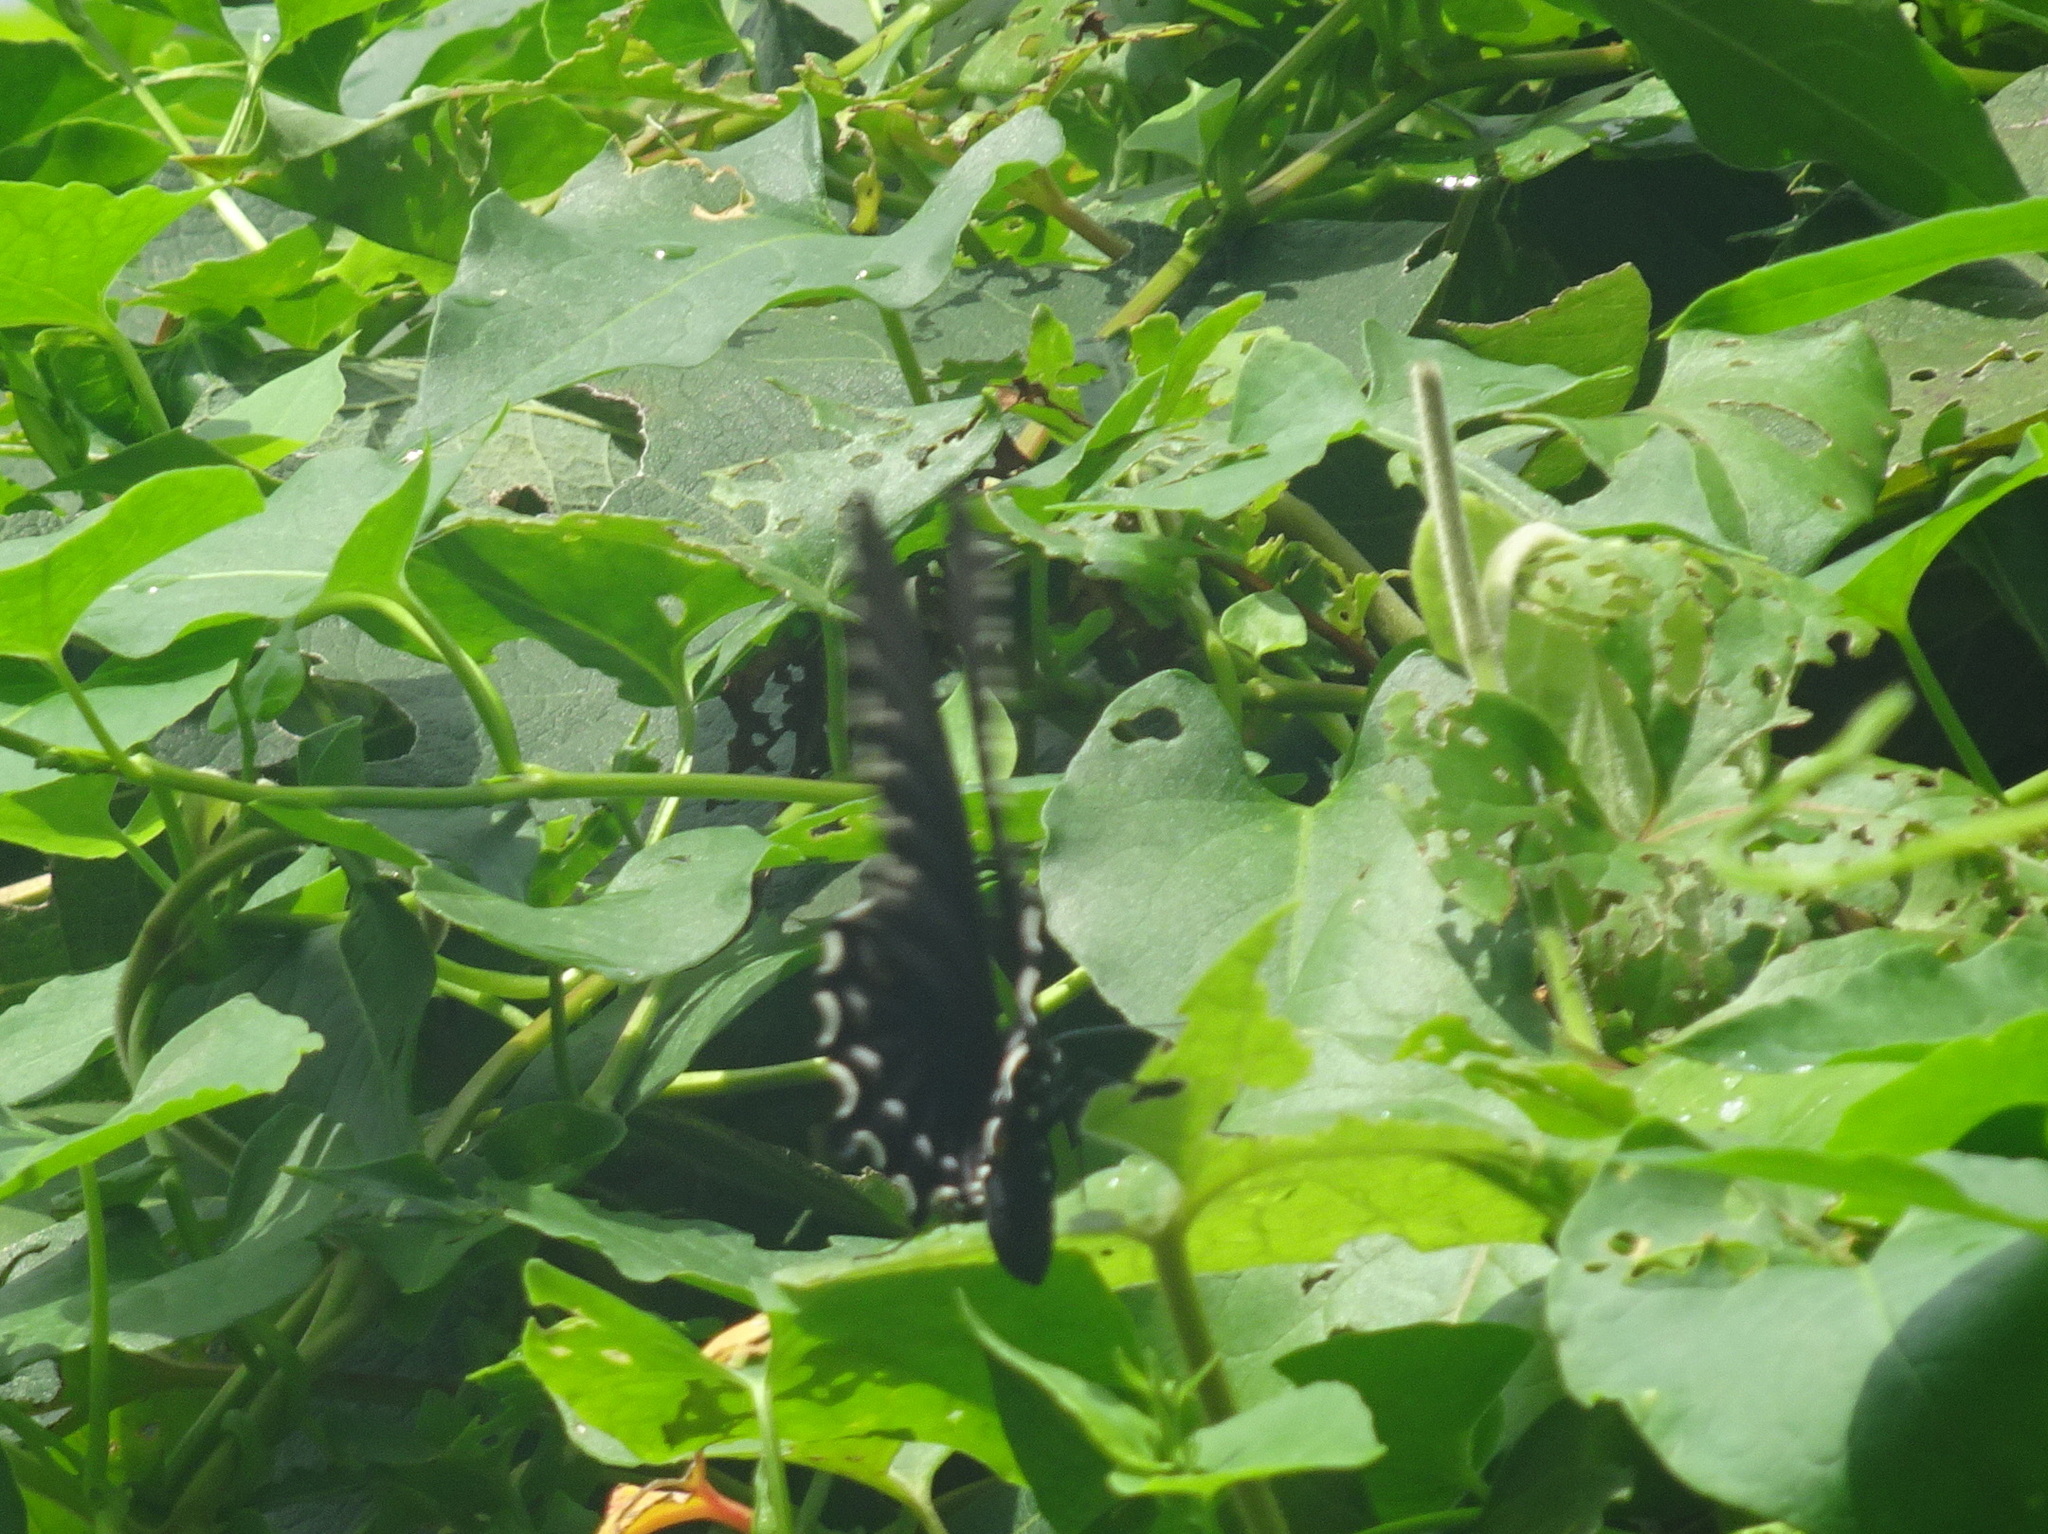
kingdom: Animalia
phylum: Arthropoda
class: Insecta
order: Lepidoptera
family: Papilionidae
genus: Battus
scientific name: Battus philenor
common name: Pipevine swallowtail
